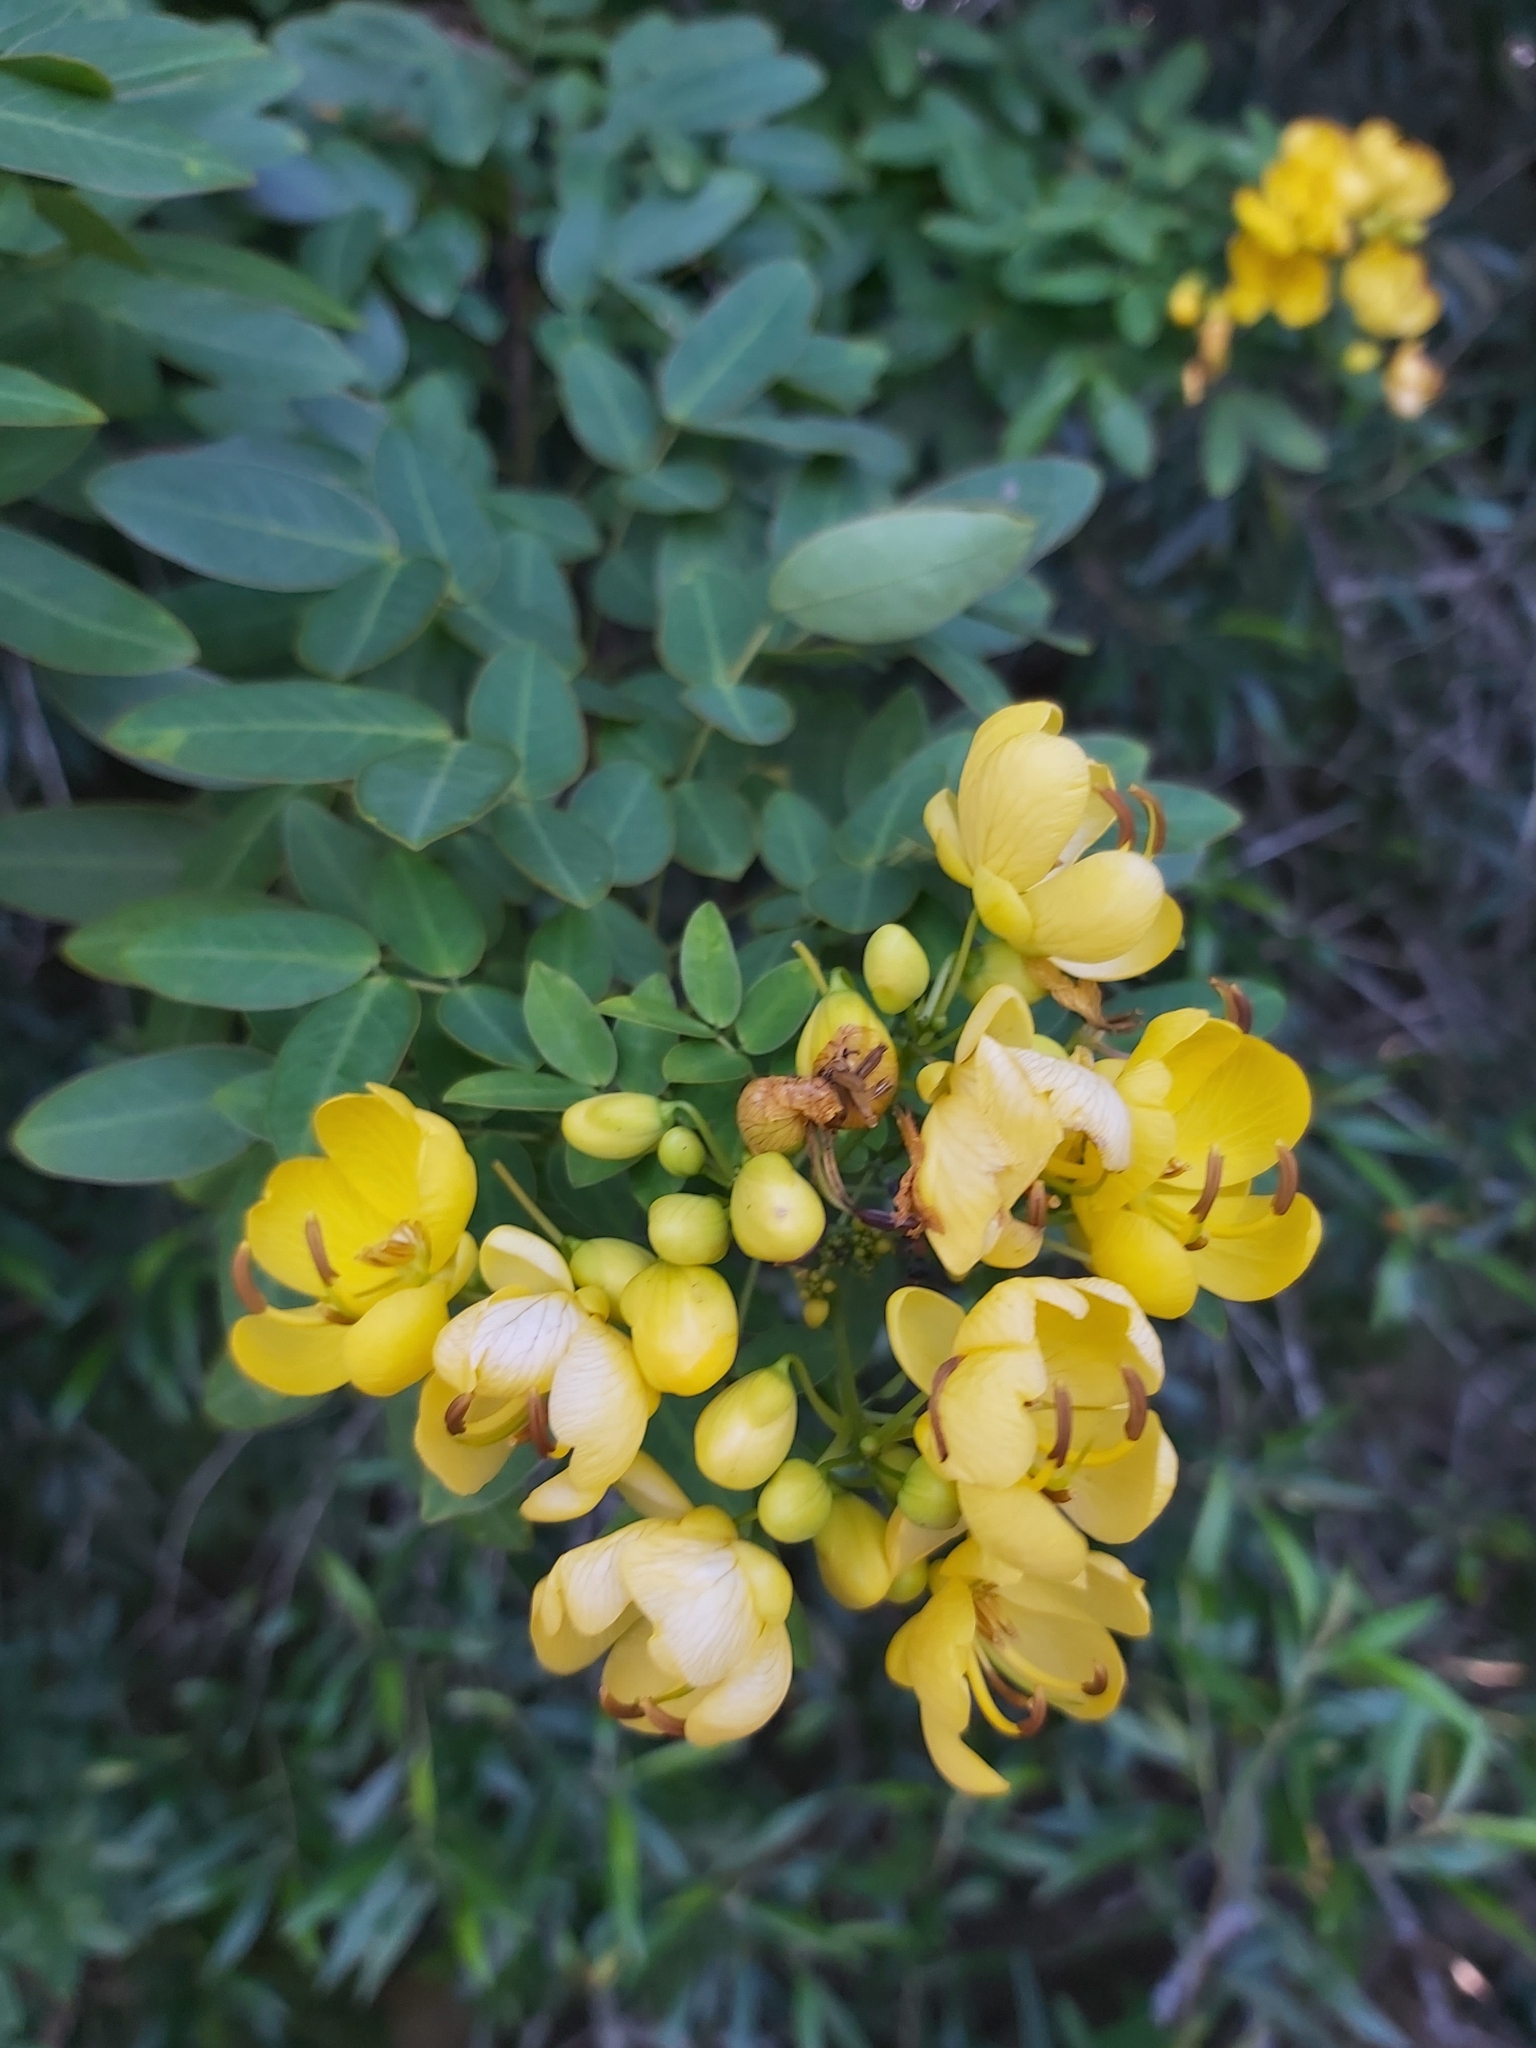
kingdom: Plantae
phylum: Tracheophyta
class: Magnoliopsida
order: Fabales
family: Fabaceae
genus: Senna
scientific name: Senna pendula
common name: Easter cassia
